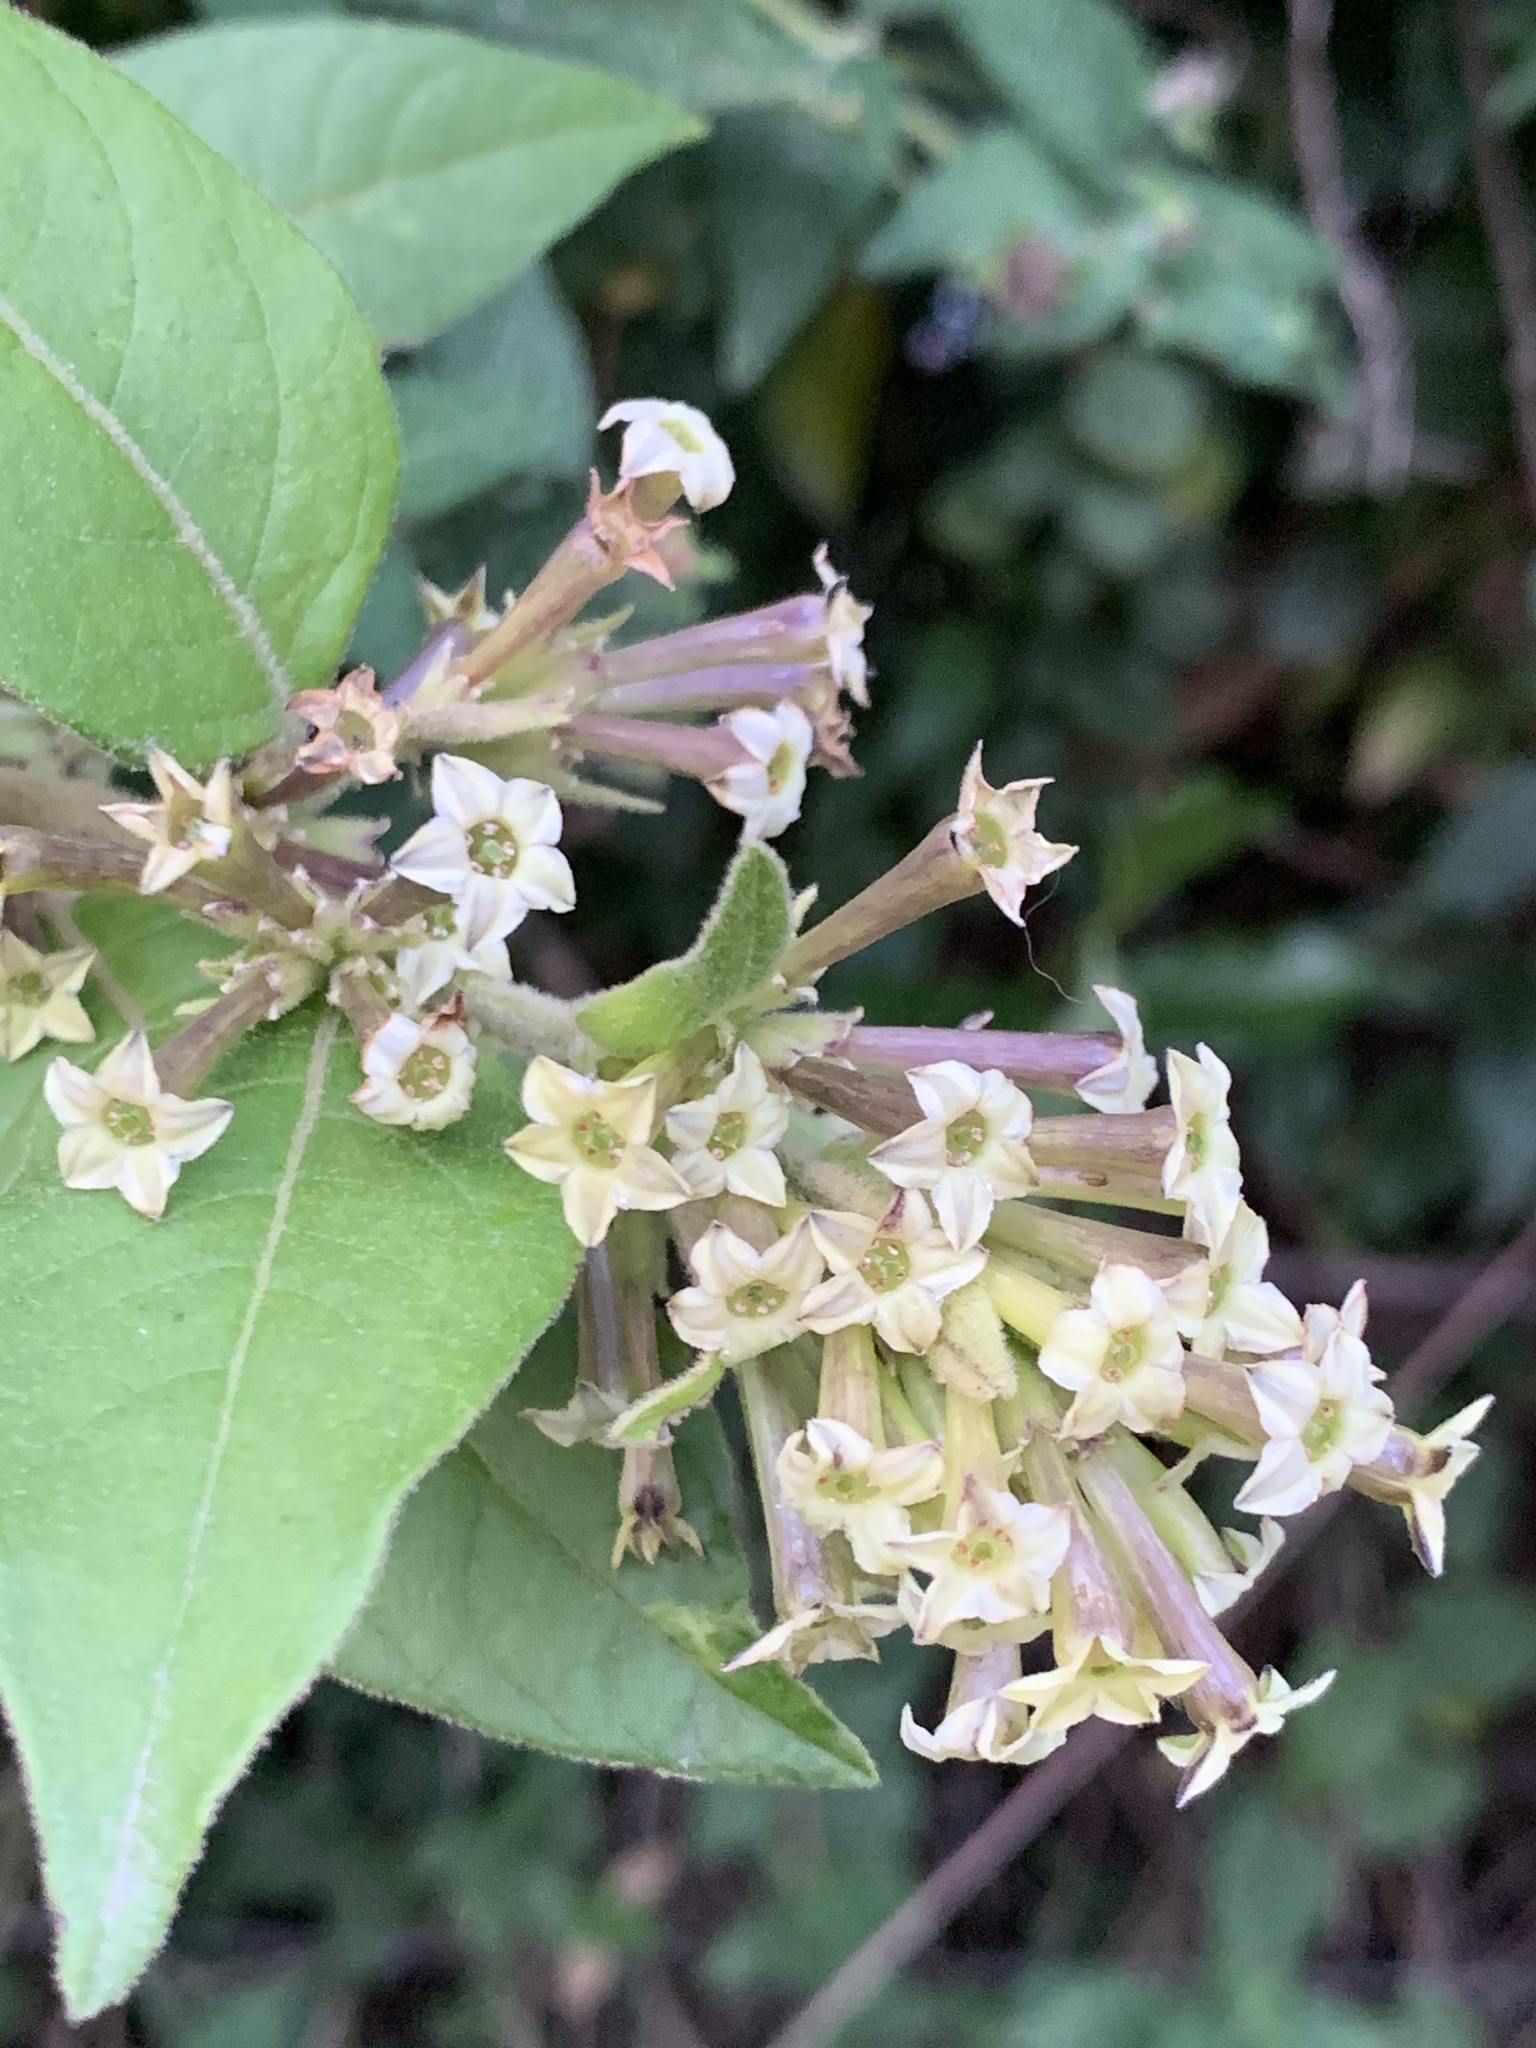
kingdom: Plantae
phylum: Tracheophyta
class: Magnoliopsida
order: Solanales
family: Solanaceae
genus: Cestrum
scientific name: Cestrum tomentosum
